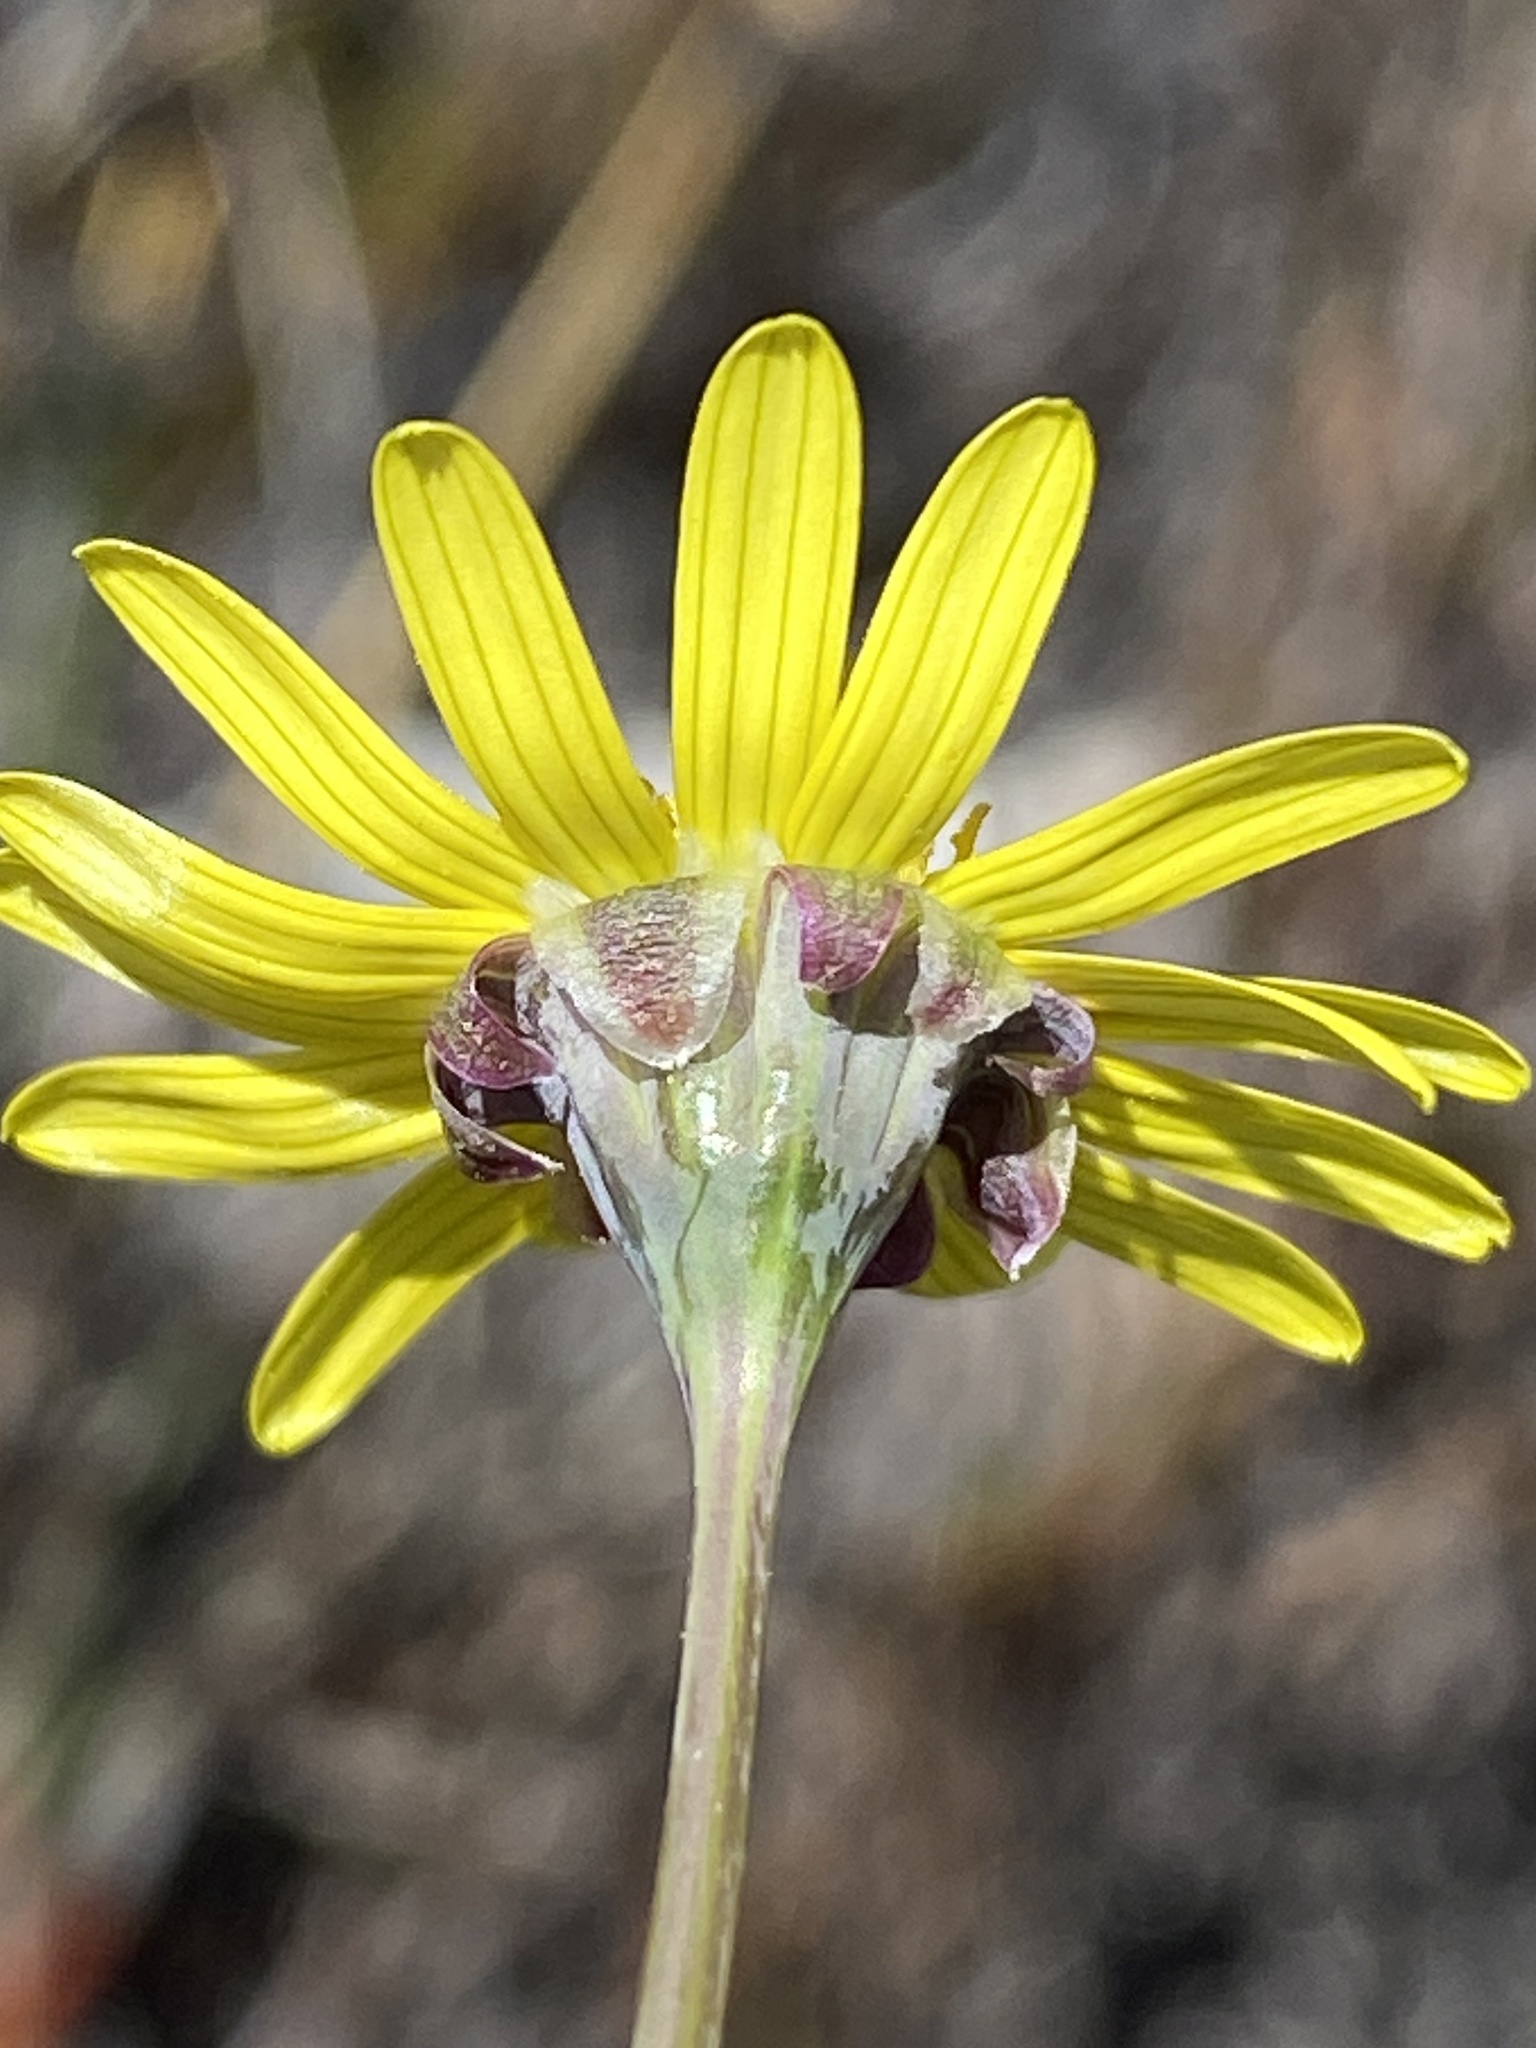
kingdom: Plantae
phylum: Tracheophyta
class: Magnoliopsida
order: Asterales
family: Asteraceae
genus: Crassothonna
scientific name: Crassothonna capensis
